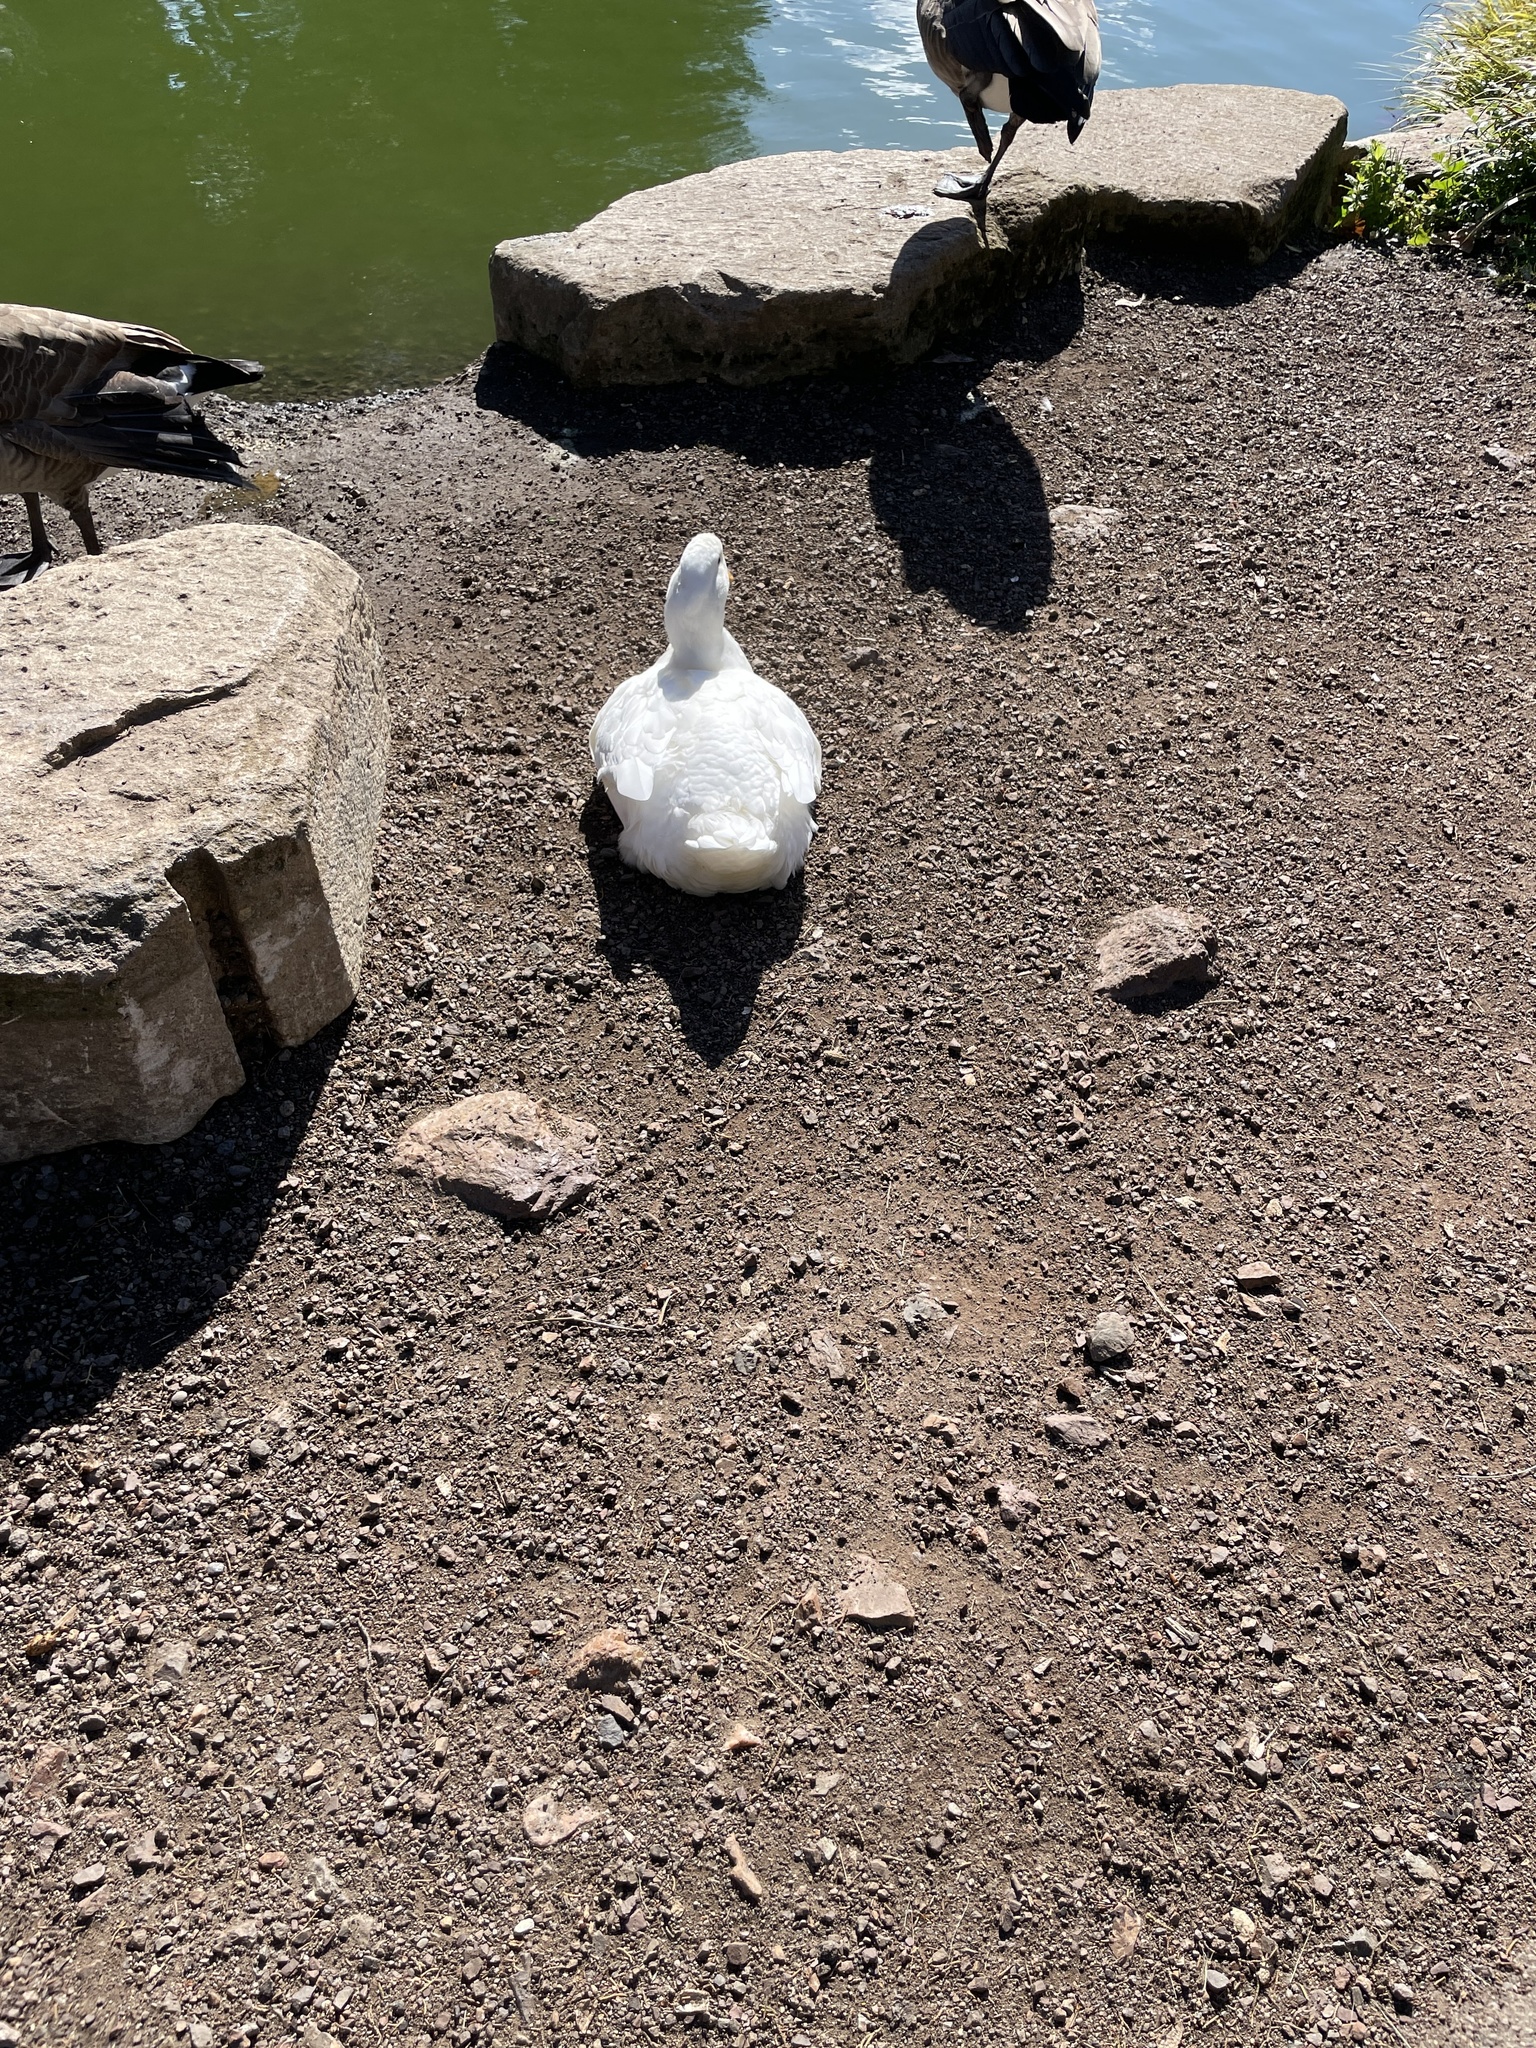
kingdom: Animalia
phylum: Chordata
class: Aves
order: Anseriformes
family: Anatidae
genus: Anas
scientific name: Anas platyrhynchos
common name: Mallard
